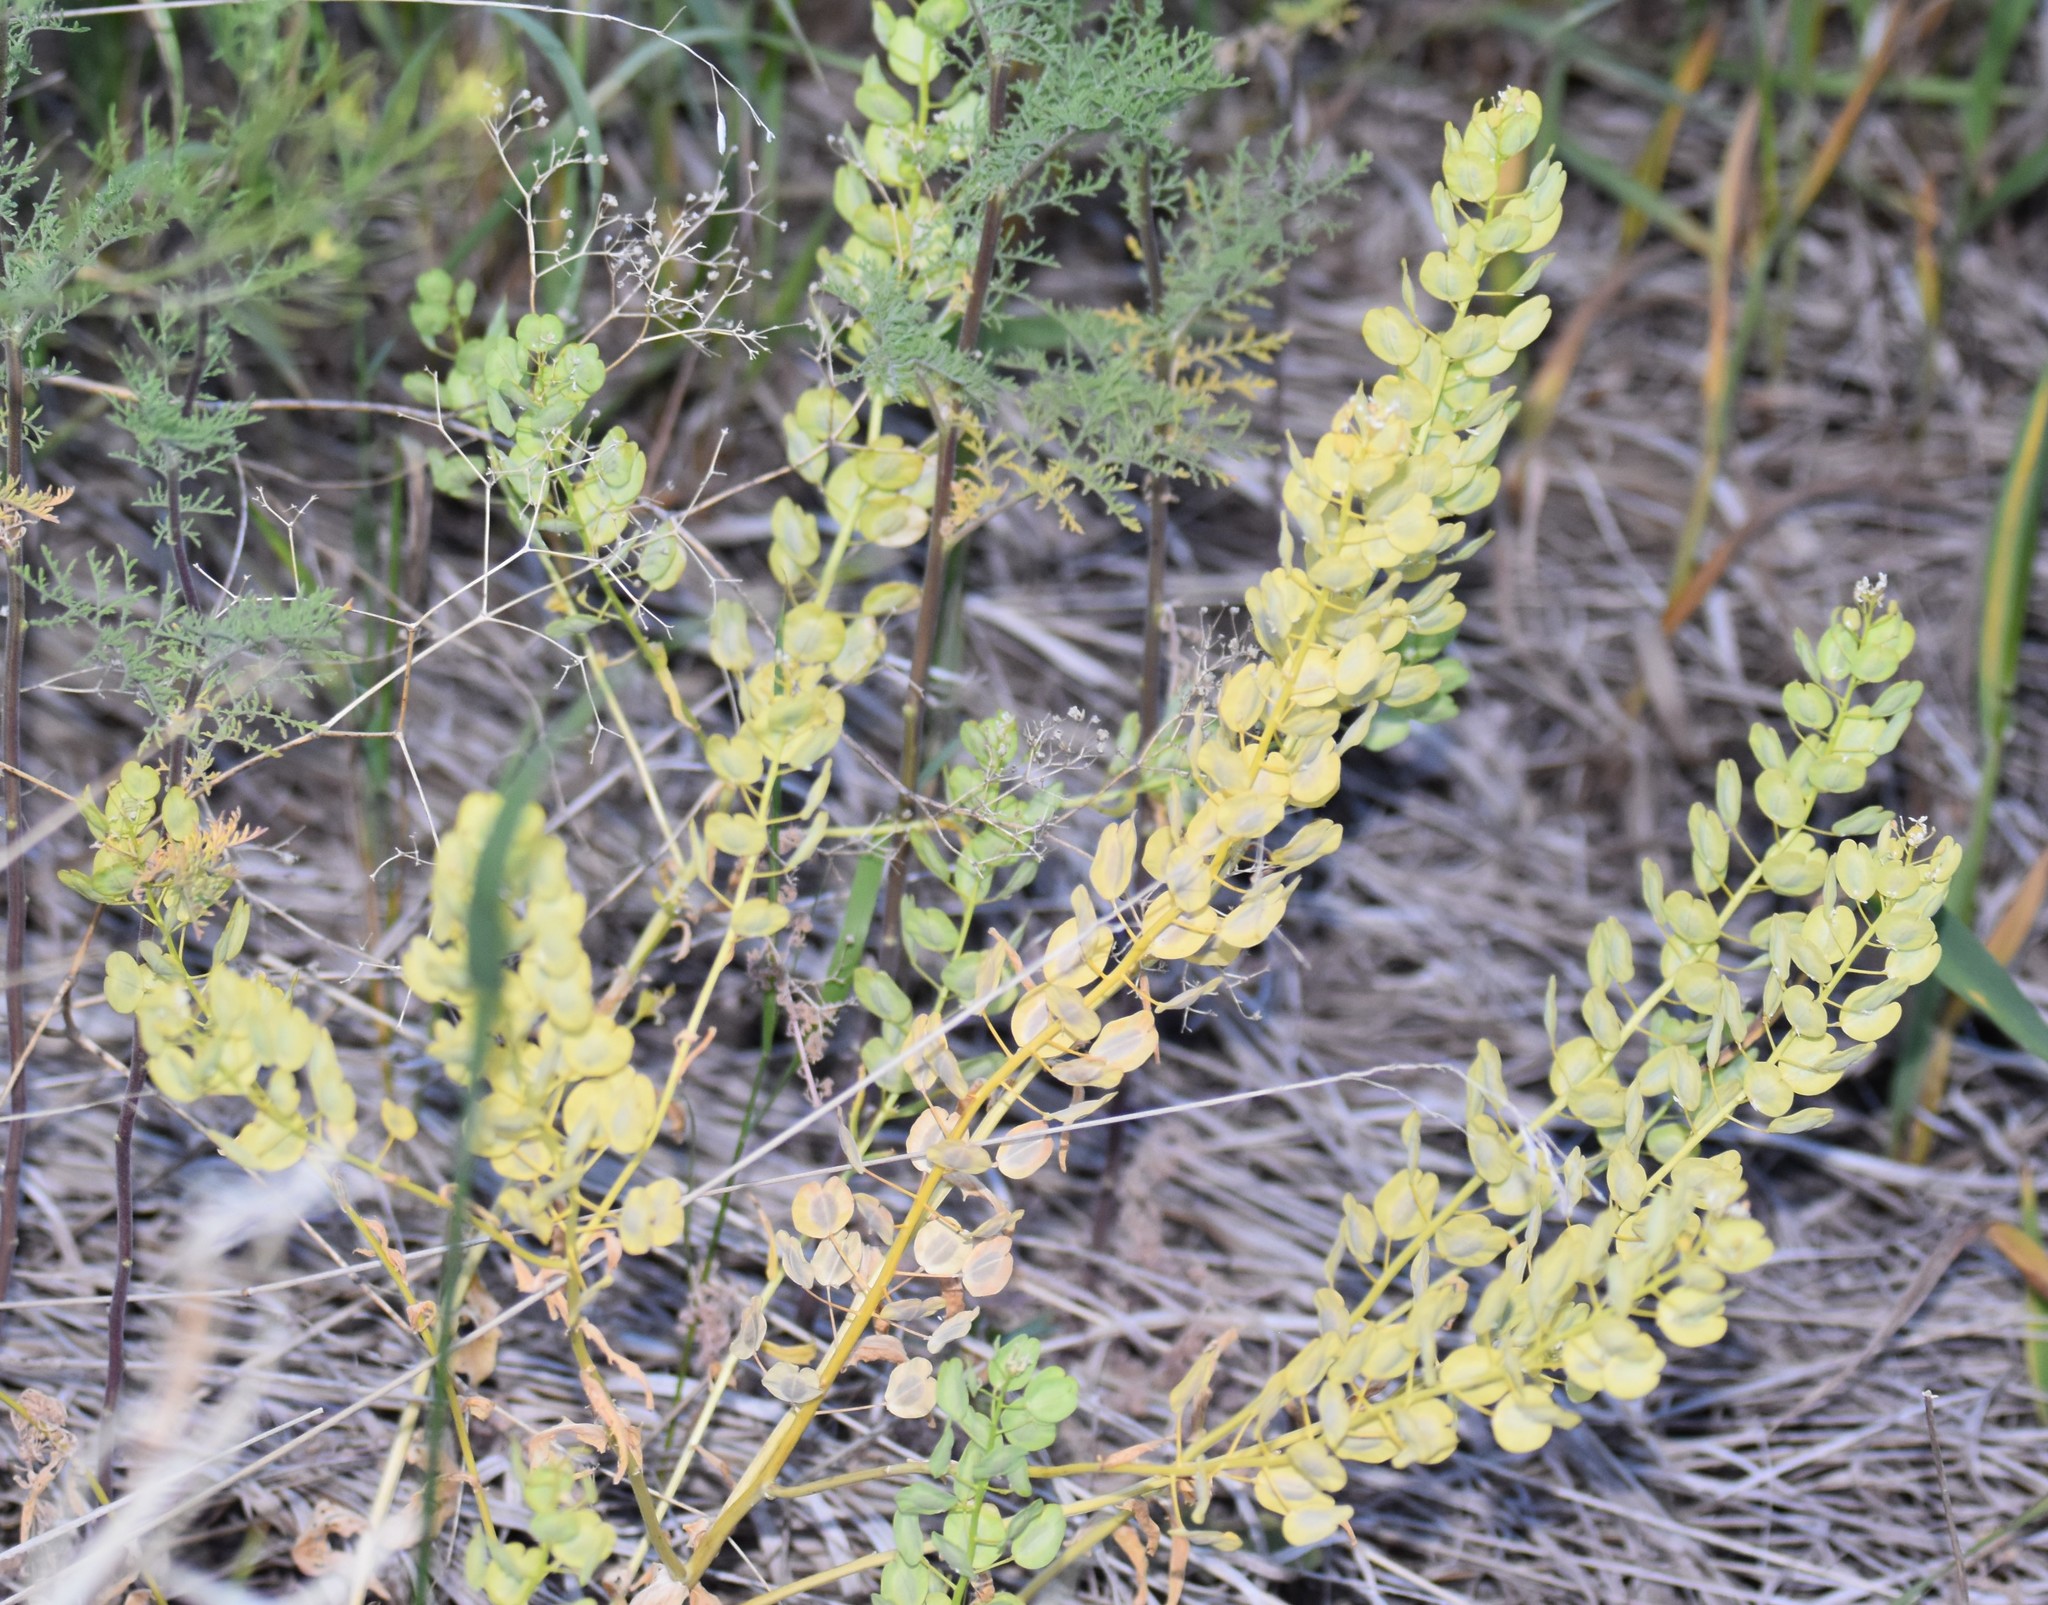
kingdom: Plantae
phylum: Tracheophyta
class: Magnoliopsida
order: Brassicales
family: Brassicaceae
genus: Thlaspi
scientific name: Thlaspi arvense
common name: Field pennycress
